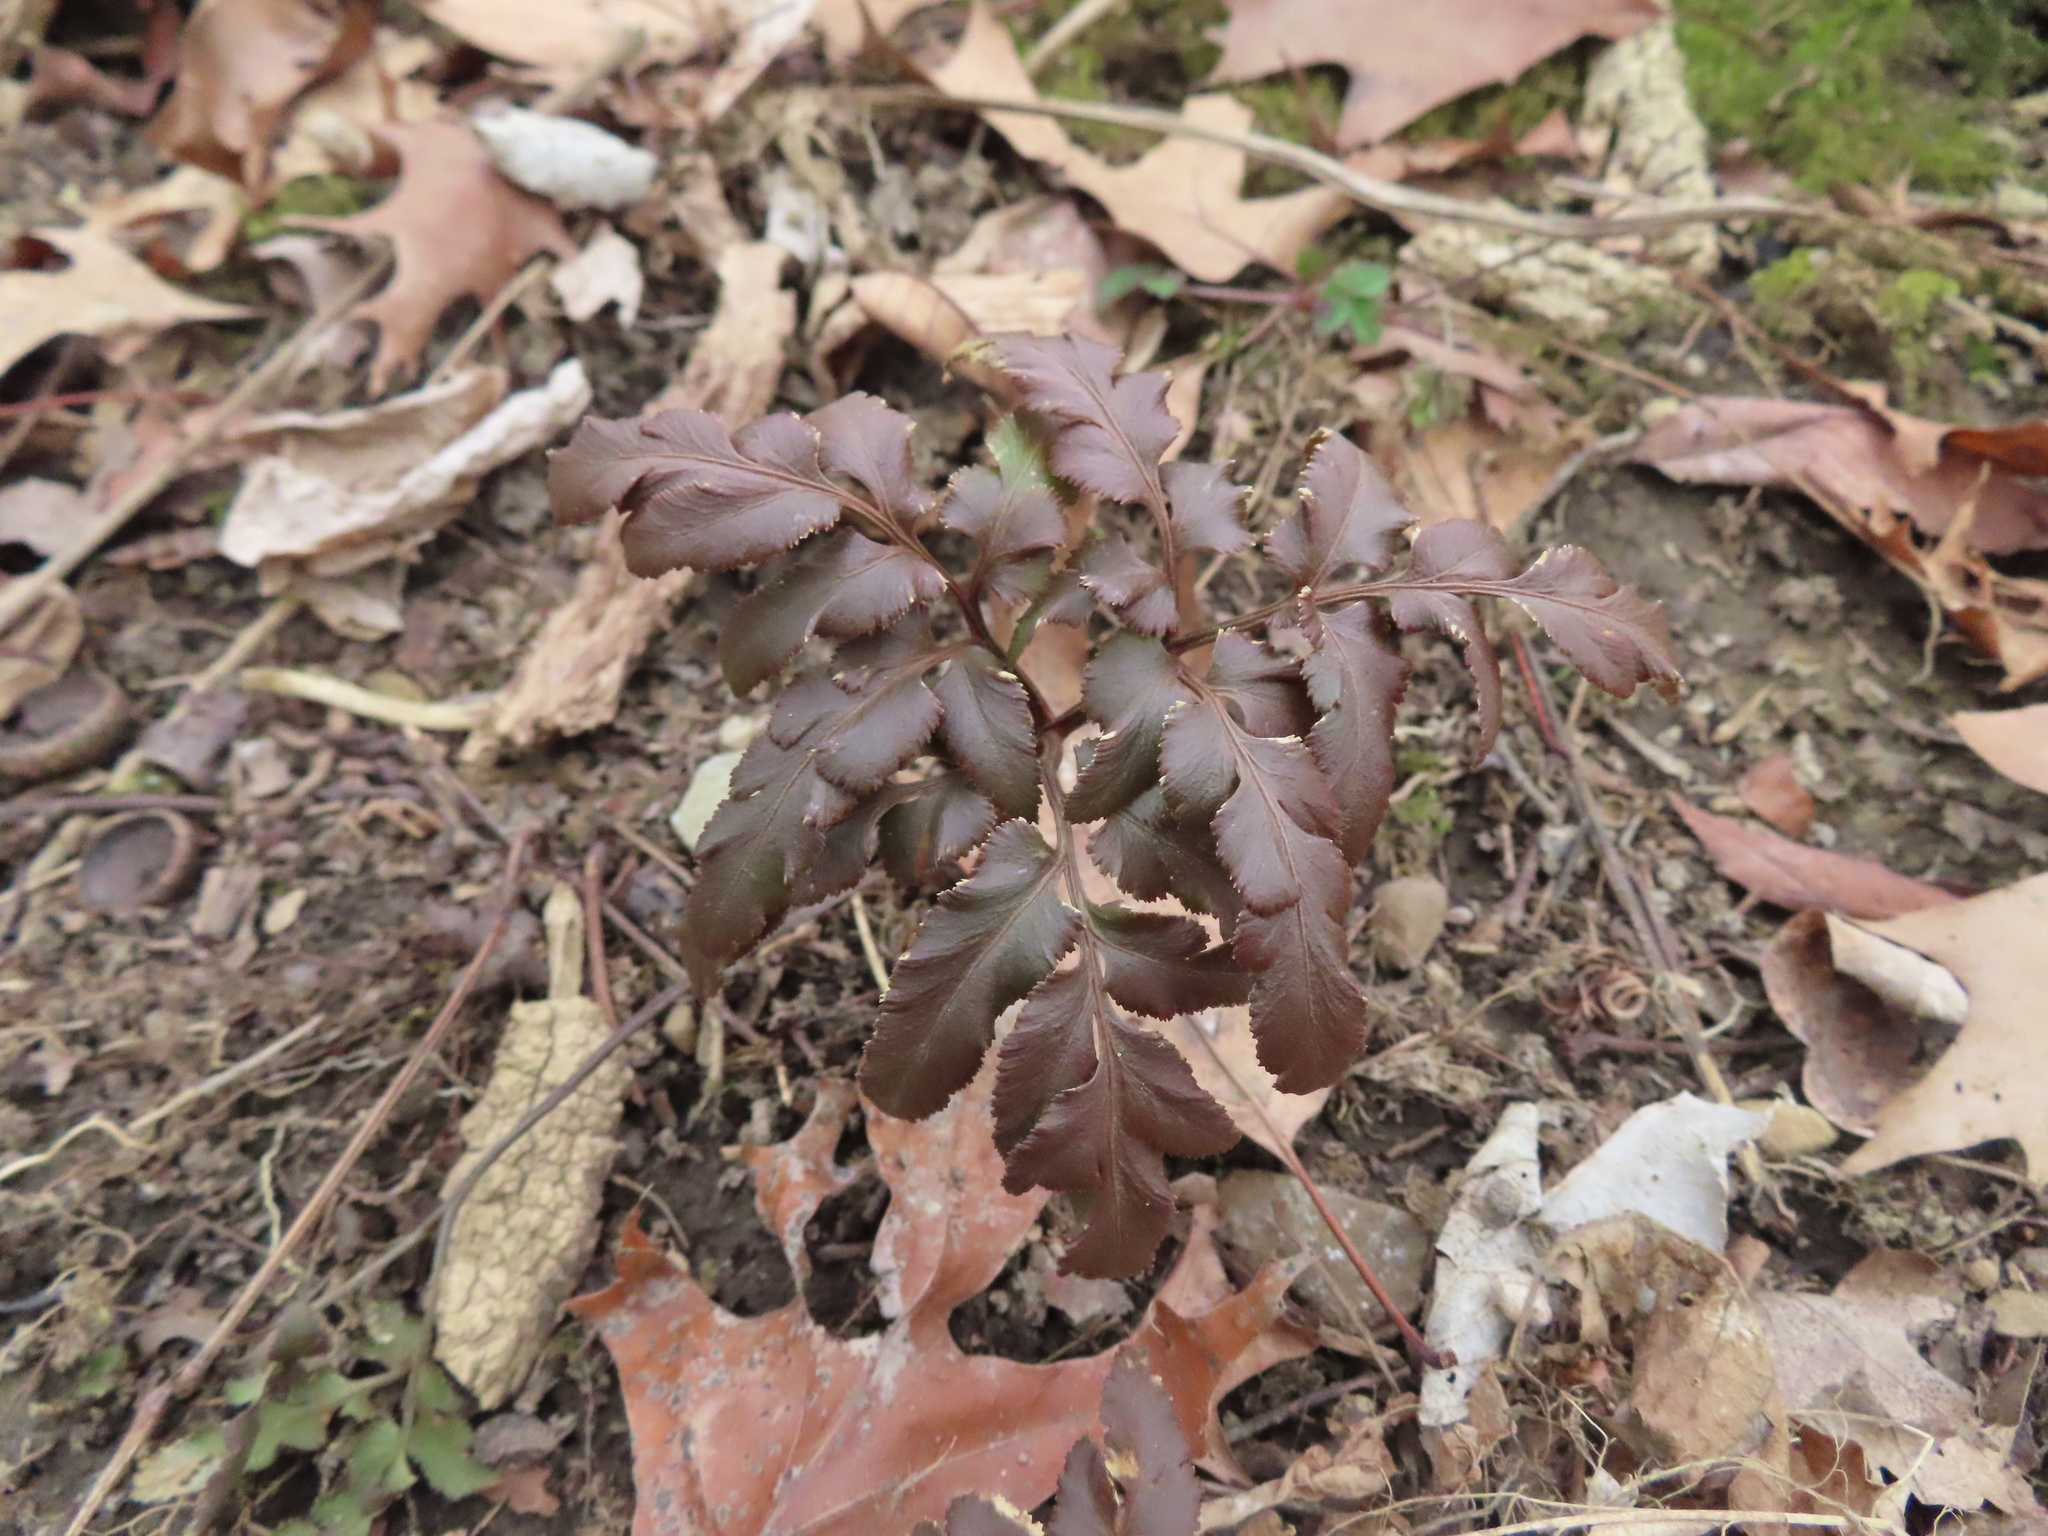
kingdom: Plantae
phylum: Tracheophyta
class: Polypodiopsida
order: Ophioglossales
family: Ophioglossaceae
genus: Sceptridium
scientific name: Sceptridium dissectum
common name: Cut-leaved grapefern
